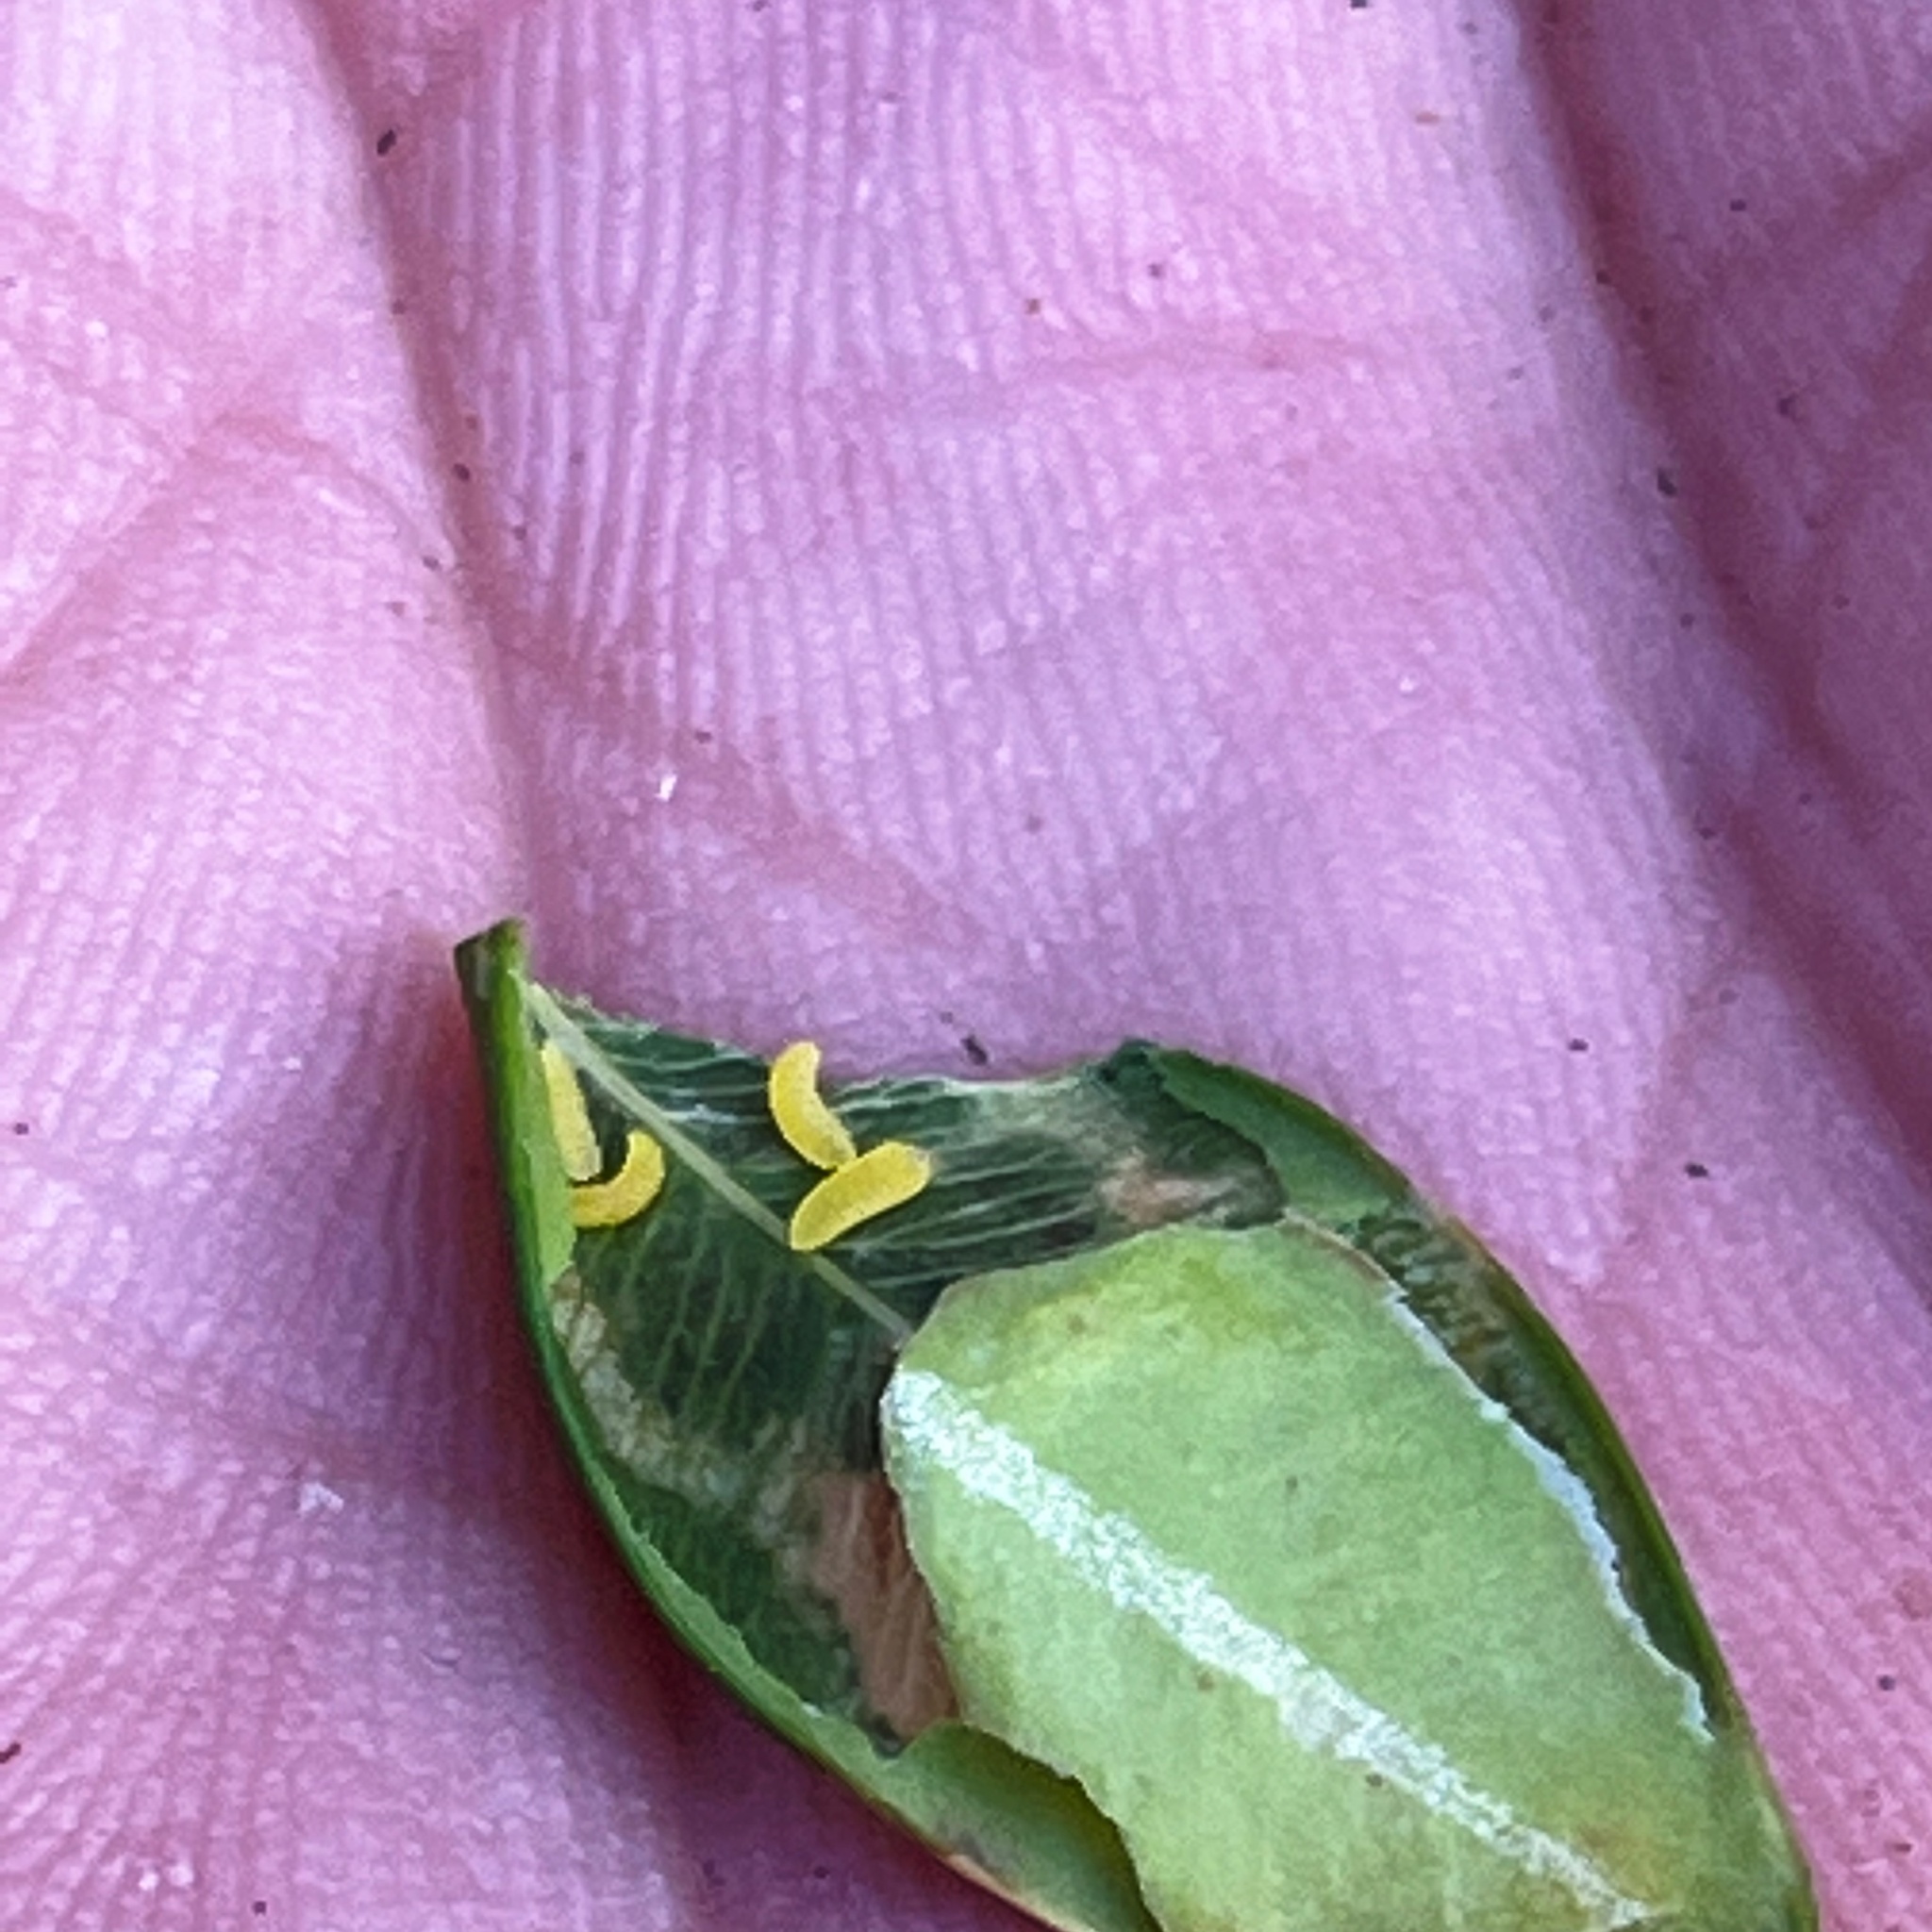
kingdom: Animalia
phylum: Arthropoda
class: Insecta
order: Diptera
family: Cecidomyiidae
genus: Monarthropalpus
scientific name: Monarthropalpus flavus
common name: Boxwood leafminer
